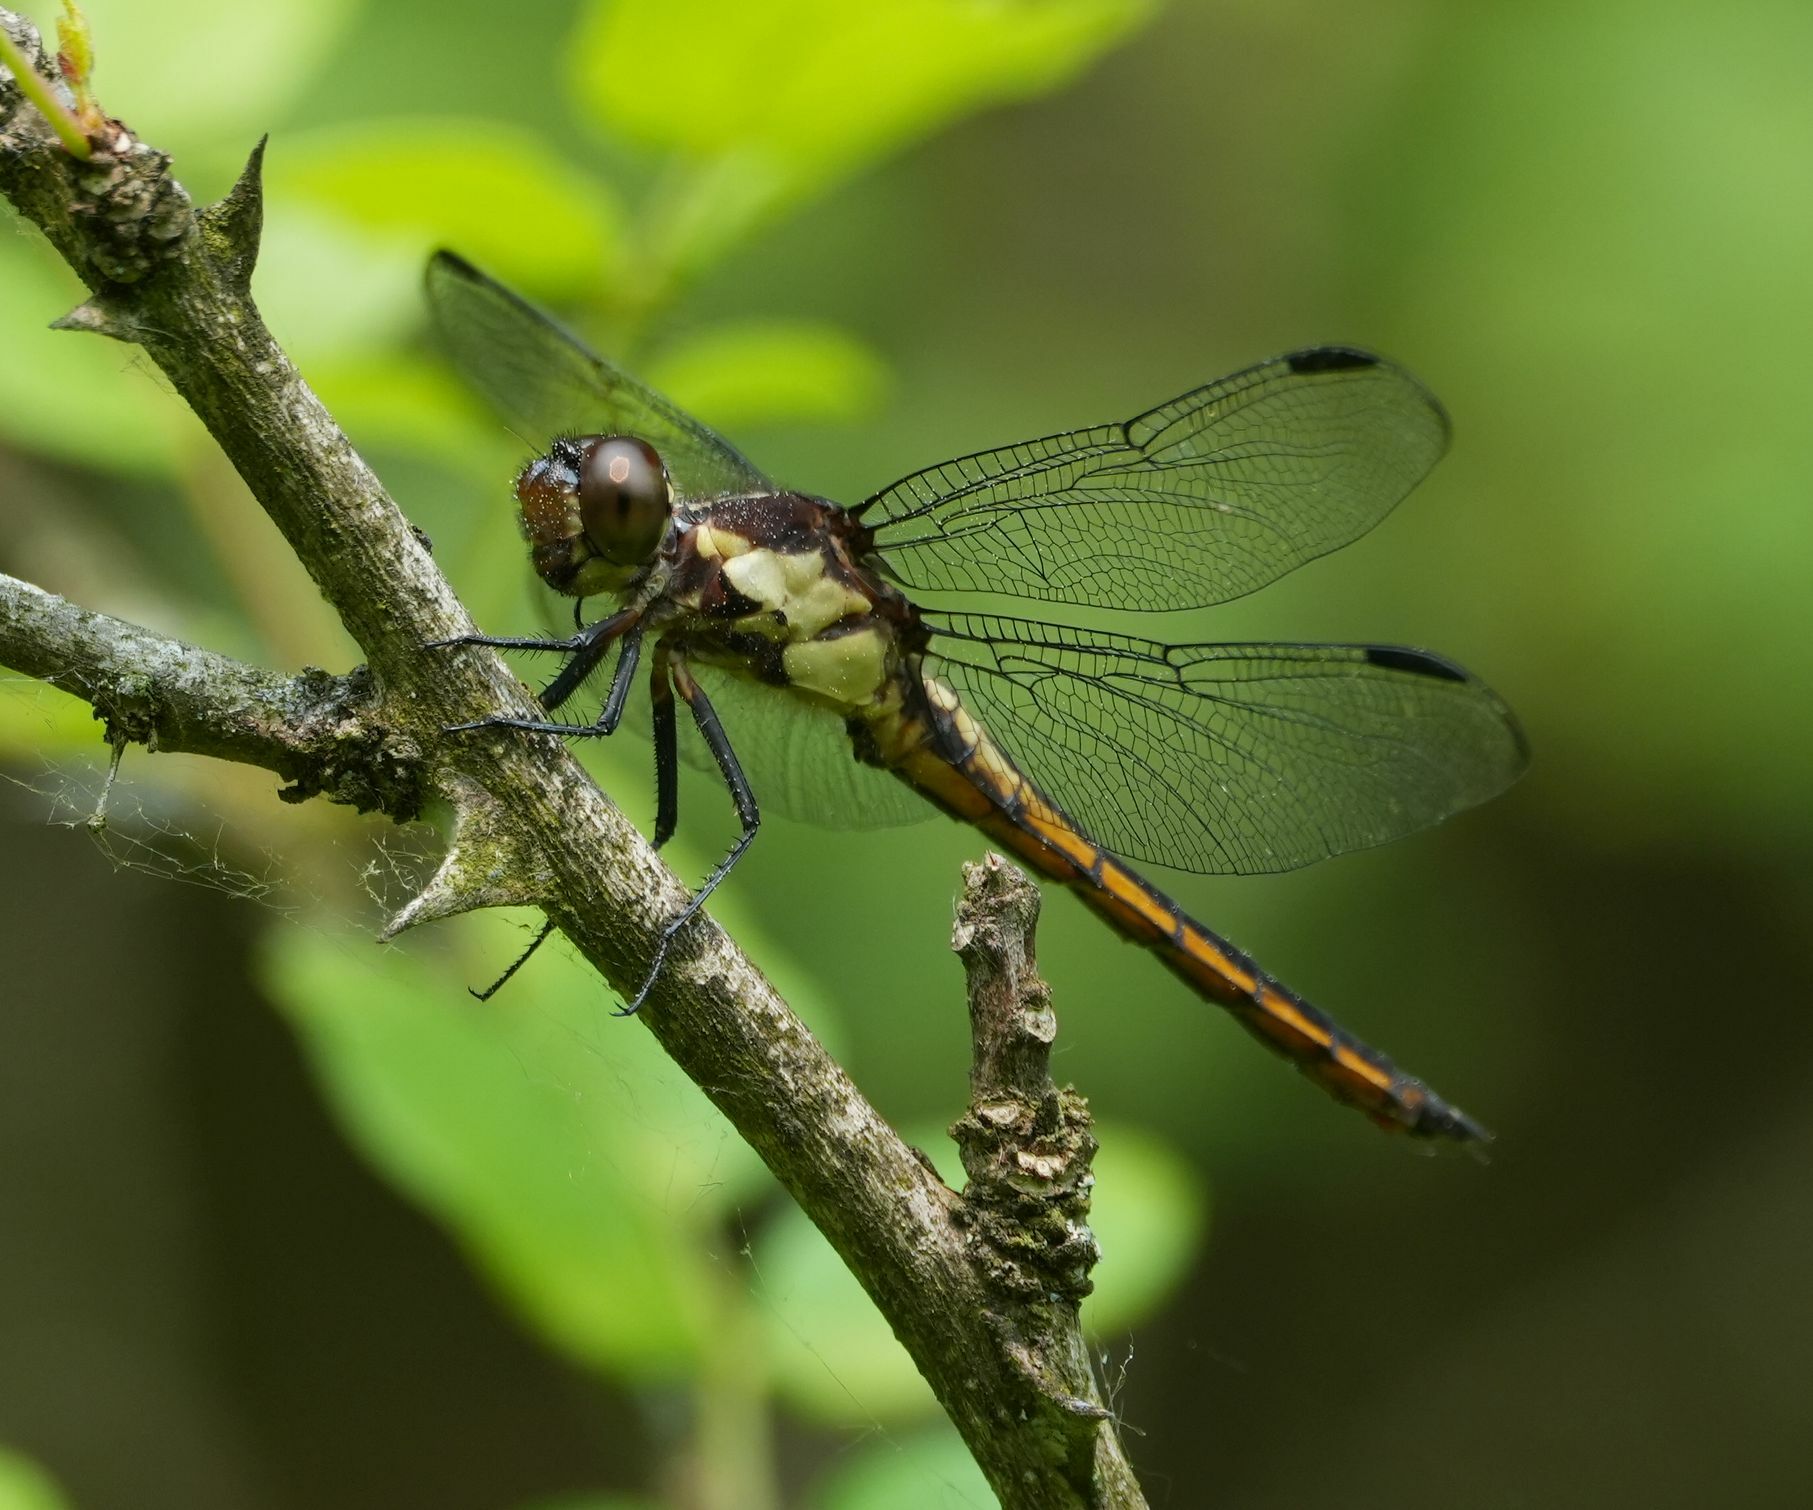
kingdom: Animalia
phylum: Arthropoda
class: Insecta
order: Odonata
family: Libellulidae
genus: Libellula
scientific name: Libellula incesta
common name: Slaty skimmer
